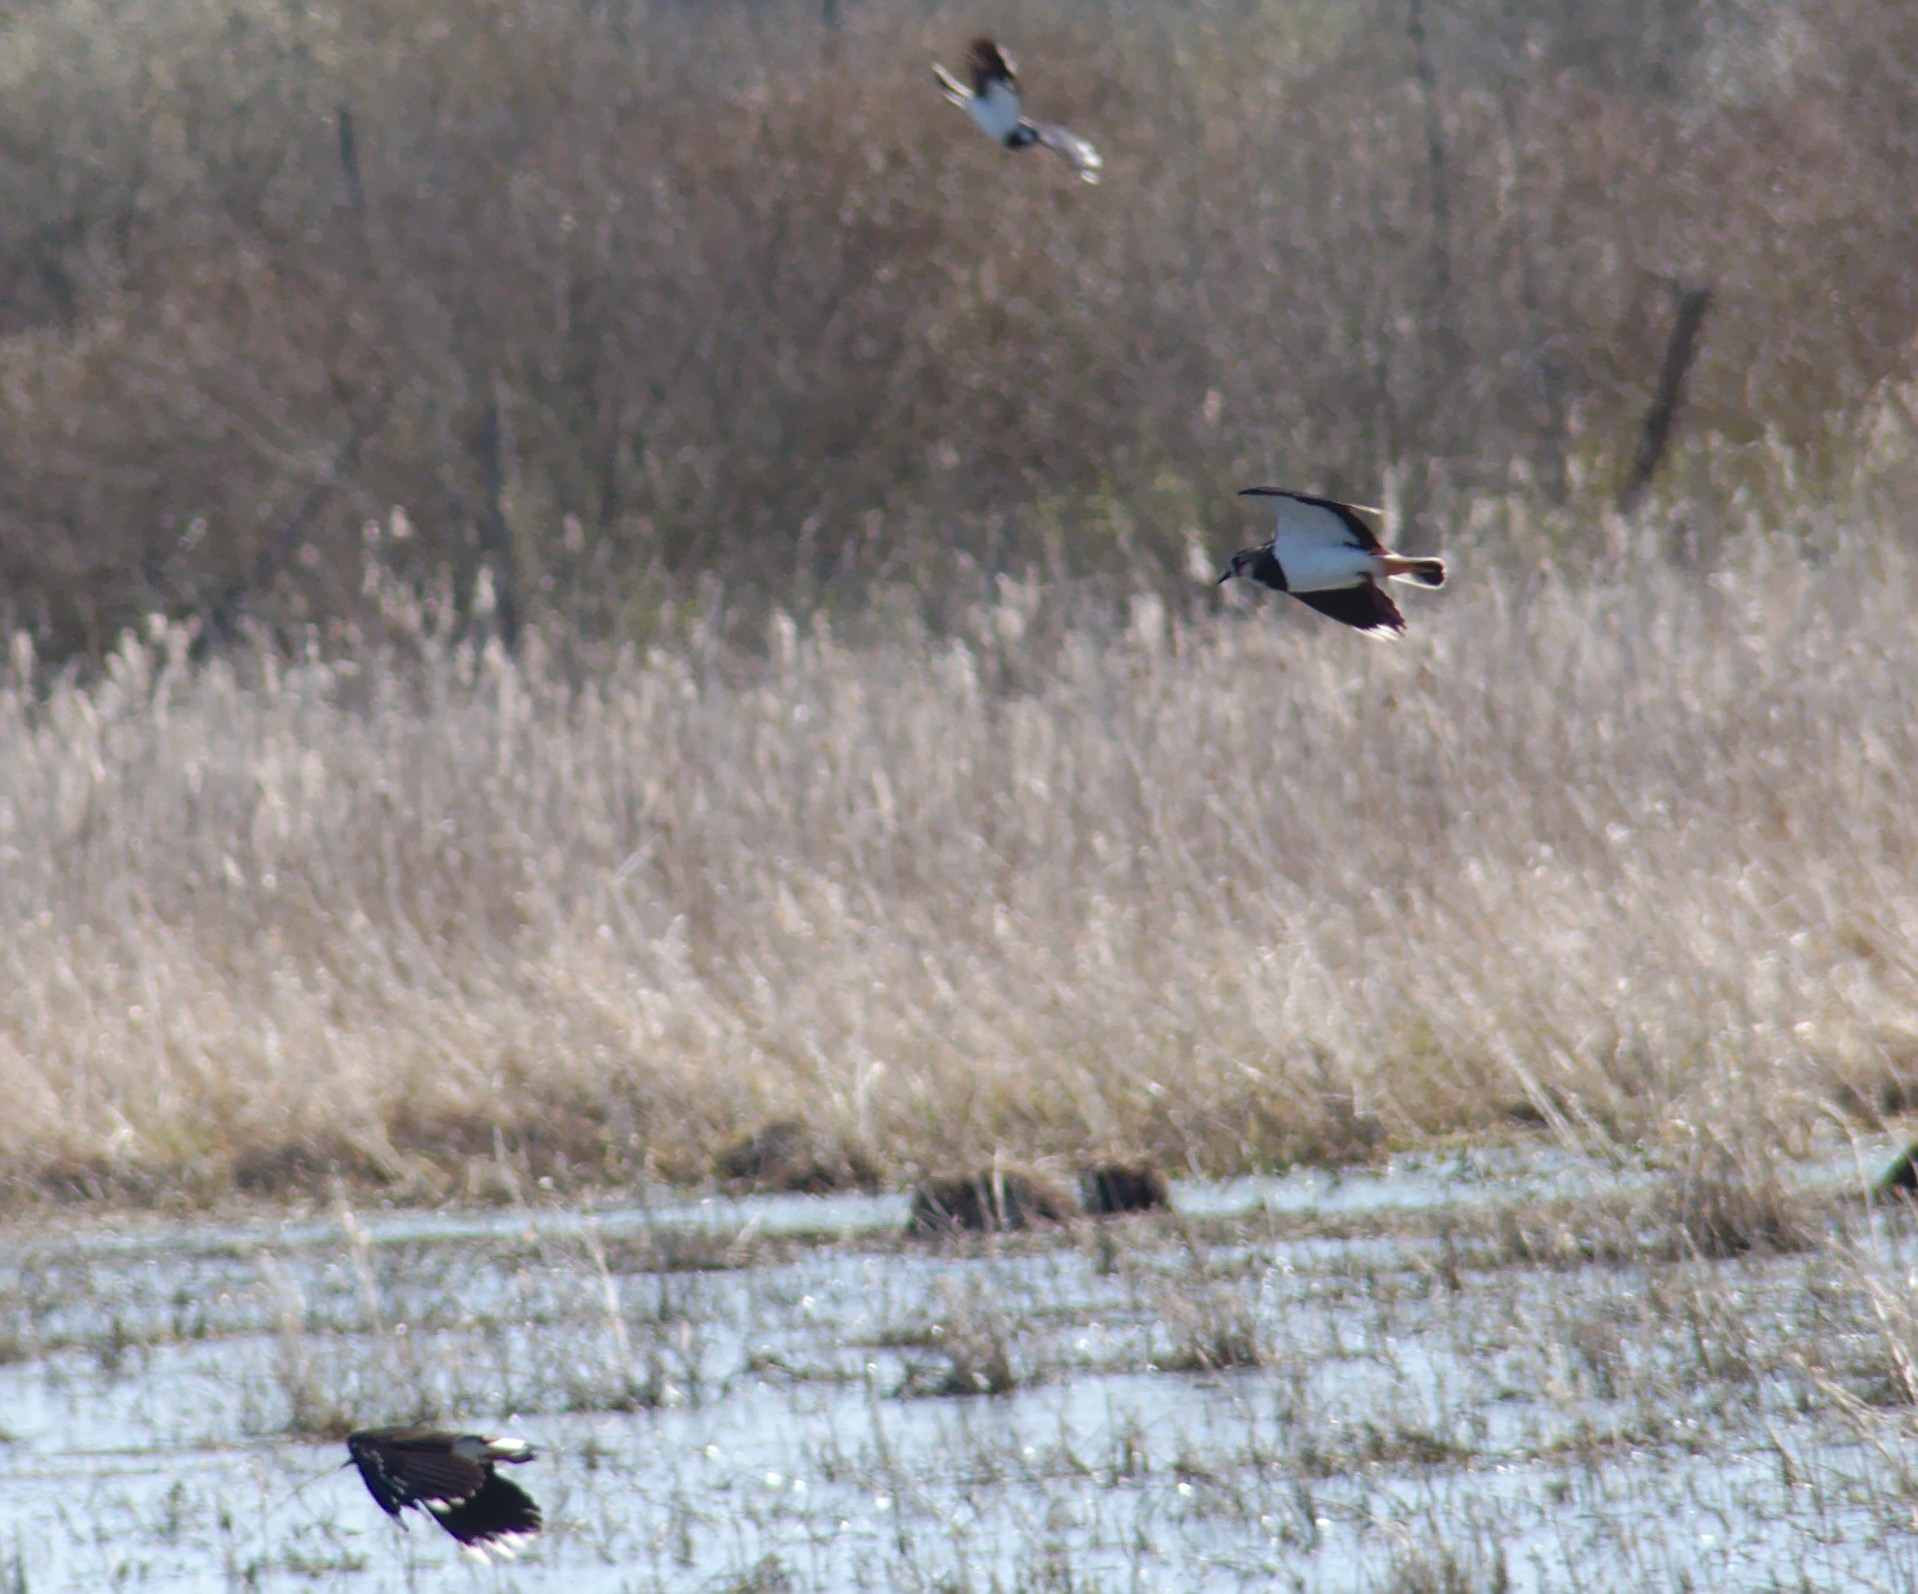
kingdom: Animalia
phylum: Chordata
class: Aves
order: Charadriiformes
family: Charadriidae
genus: Vanellus
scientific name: Vanellus vanellus
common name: Northern lapwing
